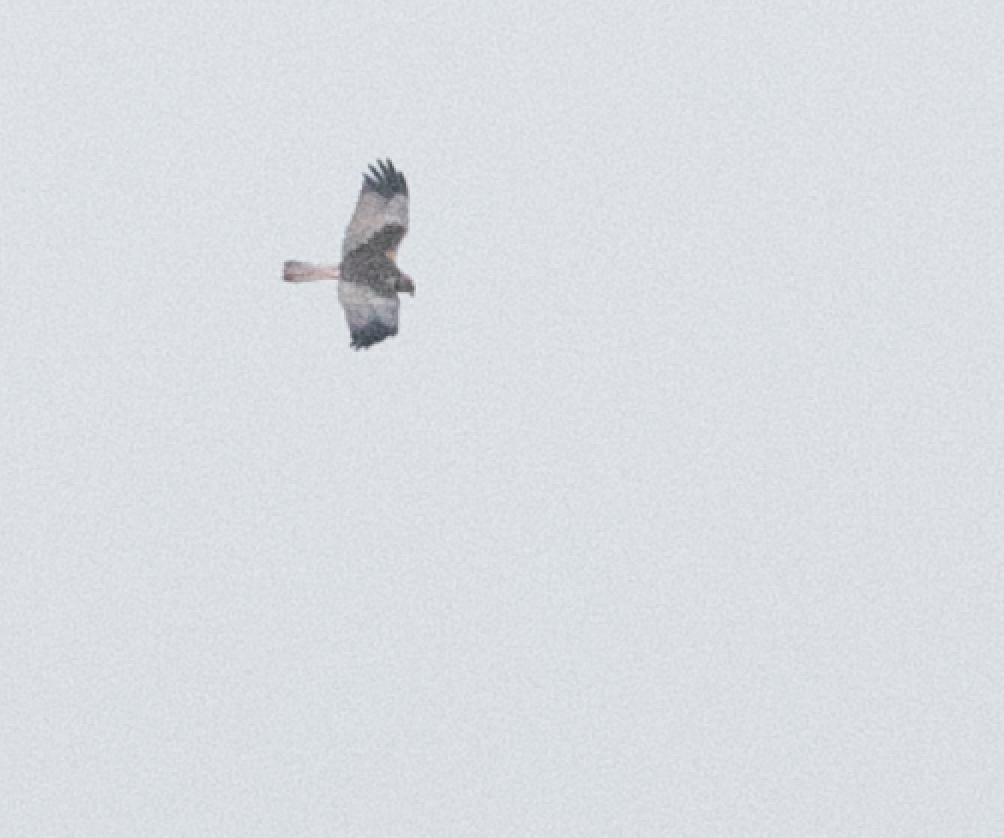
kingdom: Animalia
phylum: Chordata
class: Aves
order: Accipitriformes
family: Accipitridae
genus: Circus
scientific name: Circus aeruginosus
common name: Western marsh harrier
